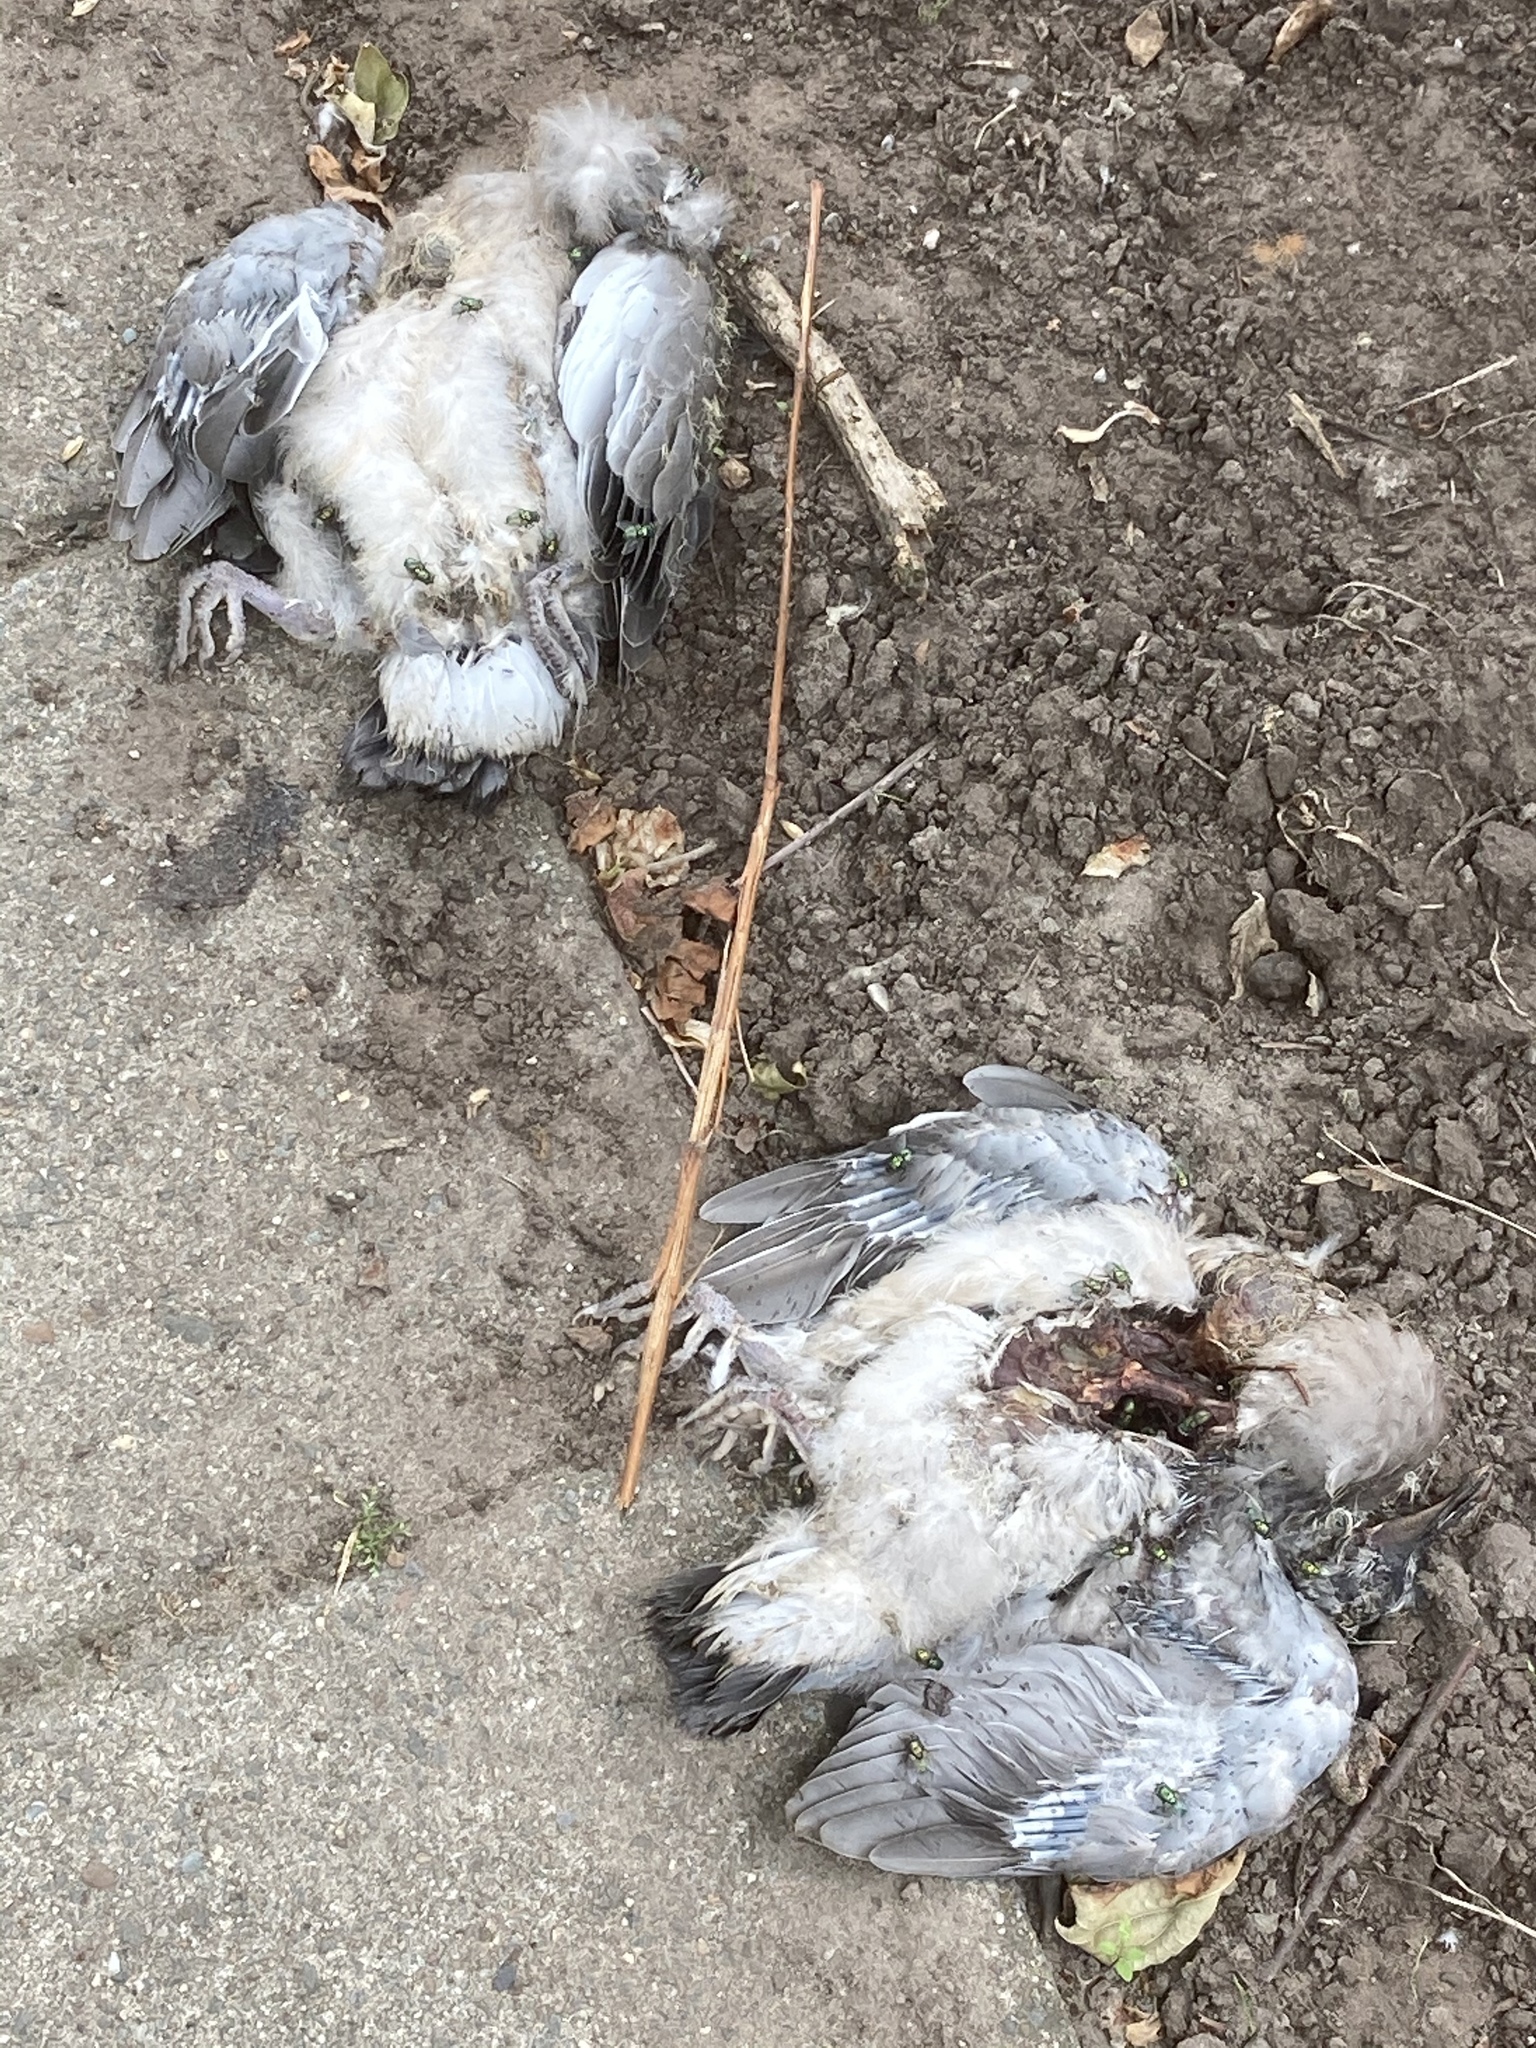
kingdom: Animalia
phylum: Chordata
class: Aves
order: Columbiformes
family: Columbidae
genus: Streptopelia
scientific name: Streptopelia decaocto
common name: Eurasian collared dove
